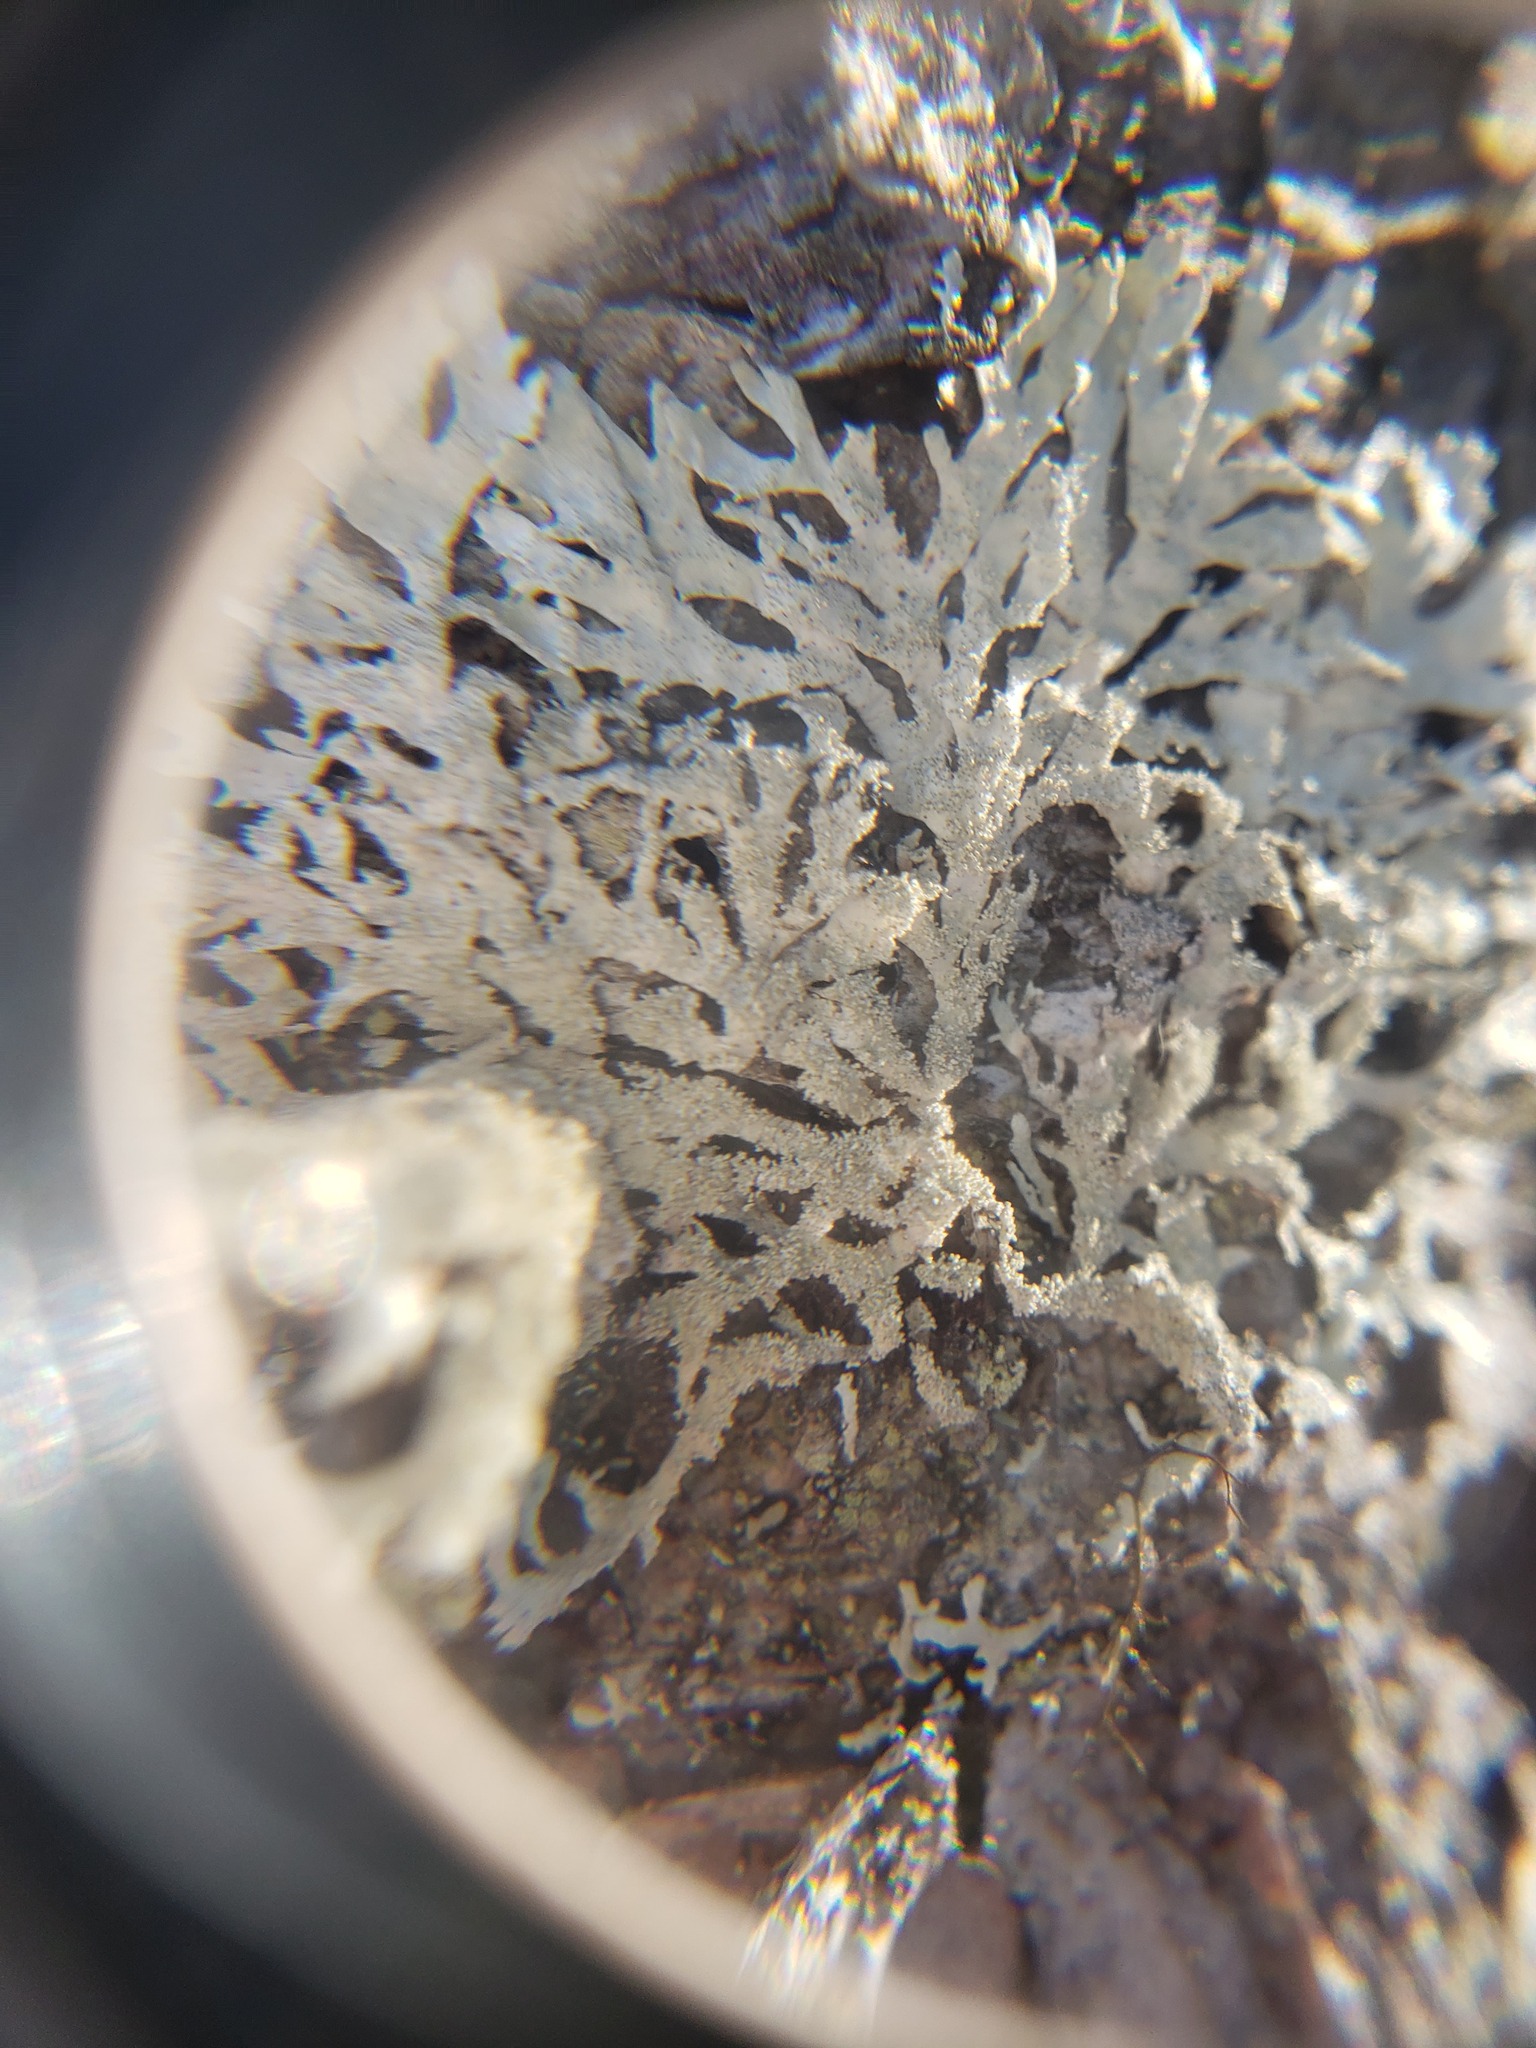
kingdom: Fungi
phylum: Ascomycota
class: Lecanoromycetes
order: Lecanorales
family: Parmeliaceae
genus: Imshaugia
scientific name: Imshaugia aleurites
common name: Salted starburst lichen
